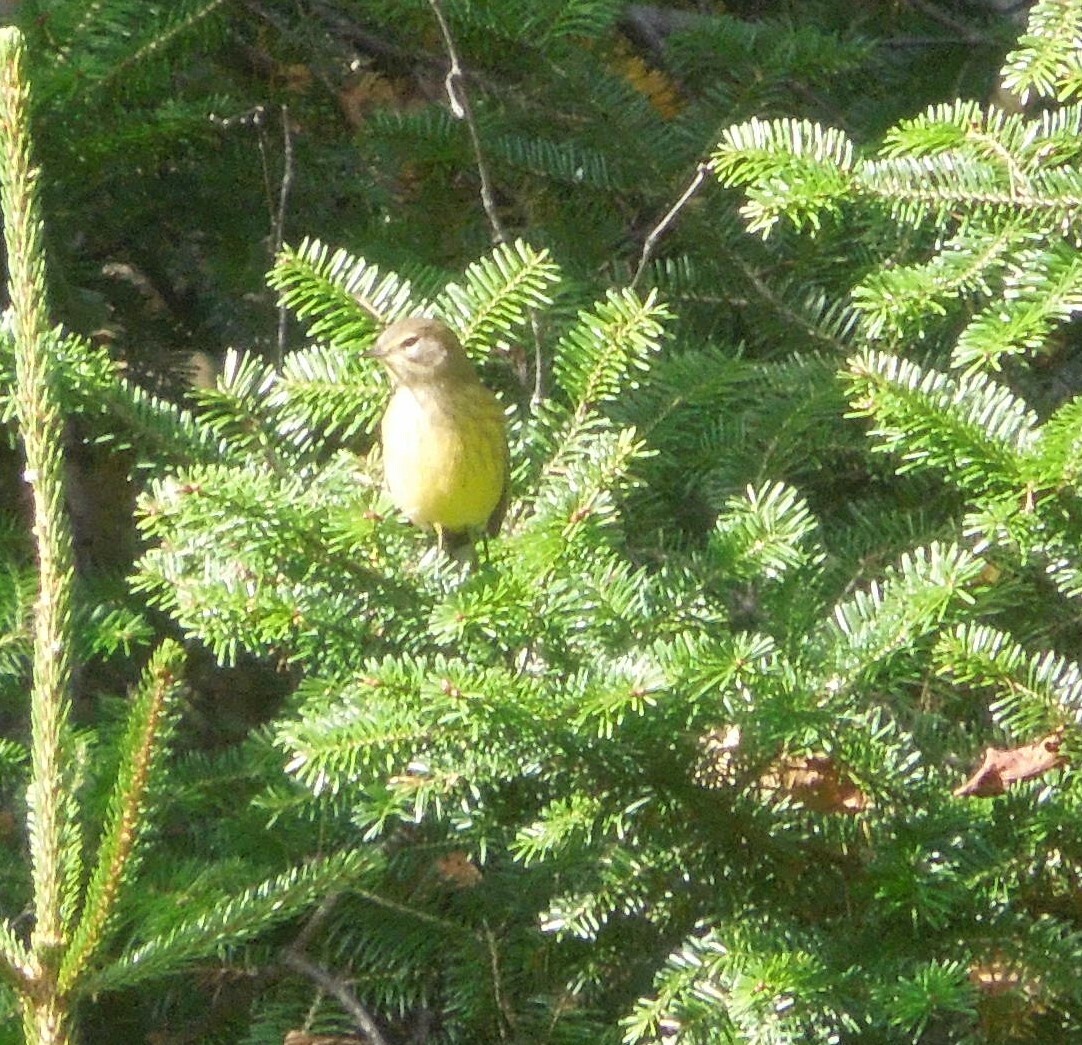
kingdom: Animalia
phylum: Chordata
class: Aves
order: Passeriformes
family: Parulidae
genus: Setophaga
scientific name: Setophaga palmarum
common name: Palm warbler
